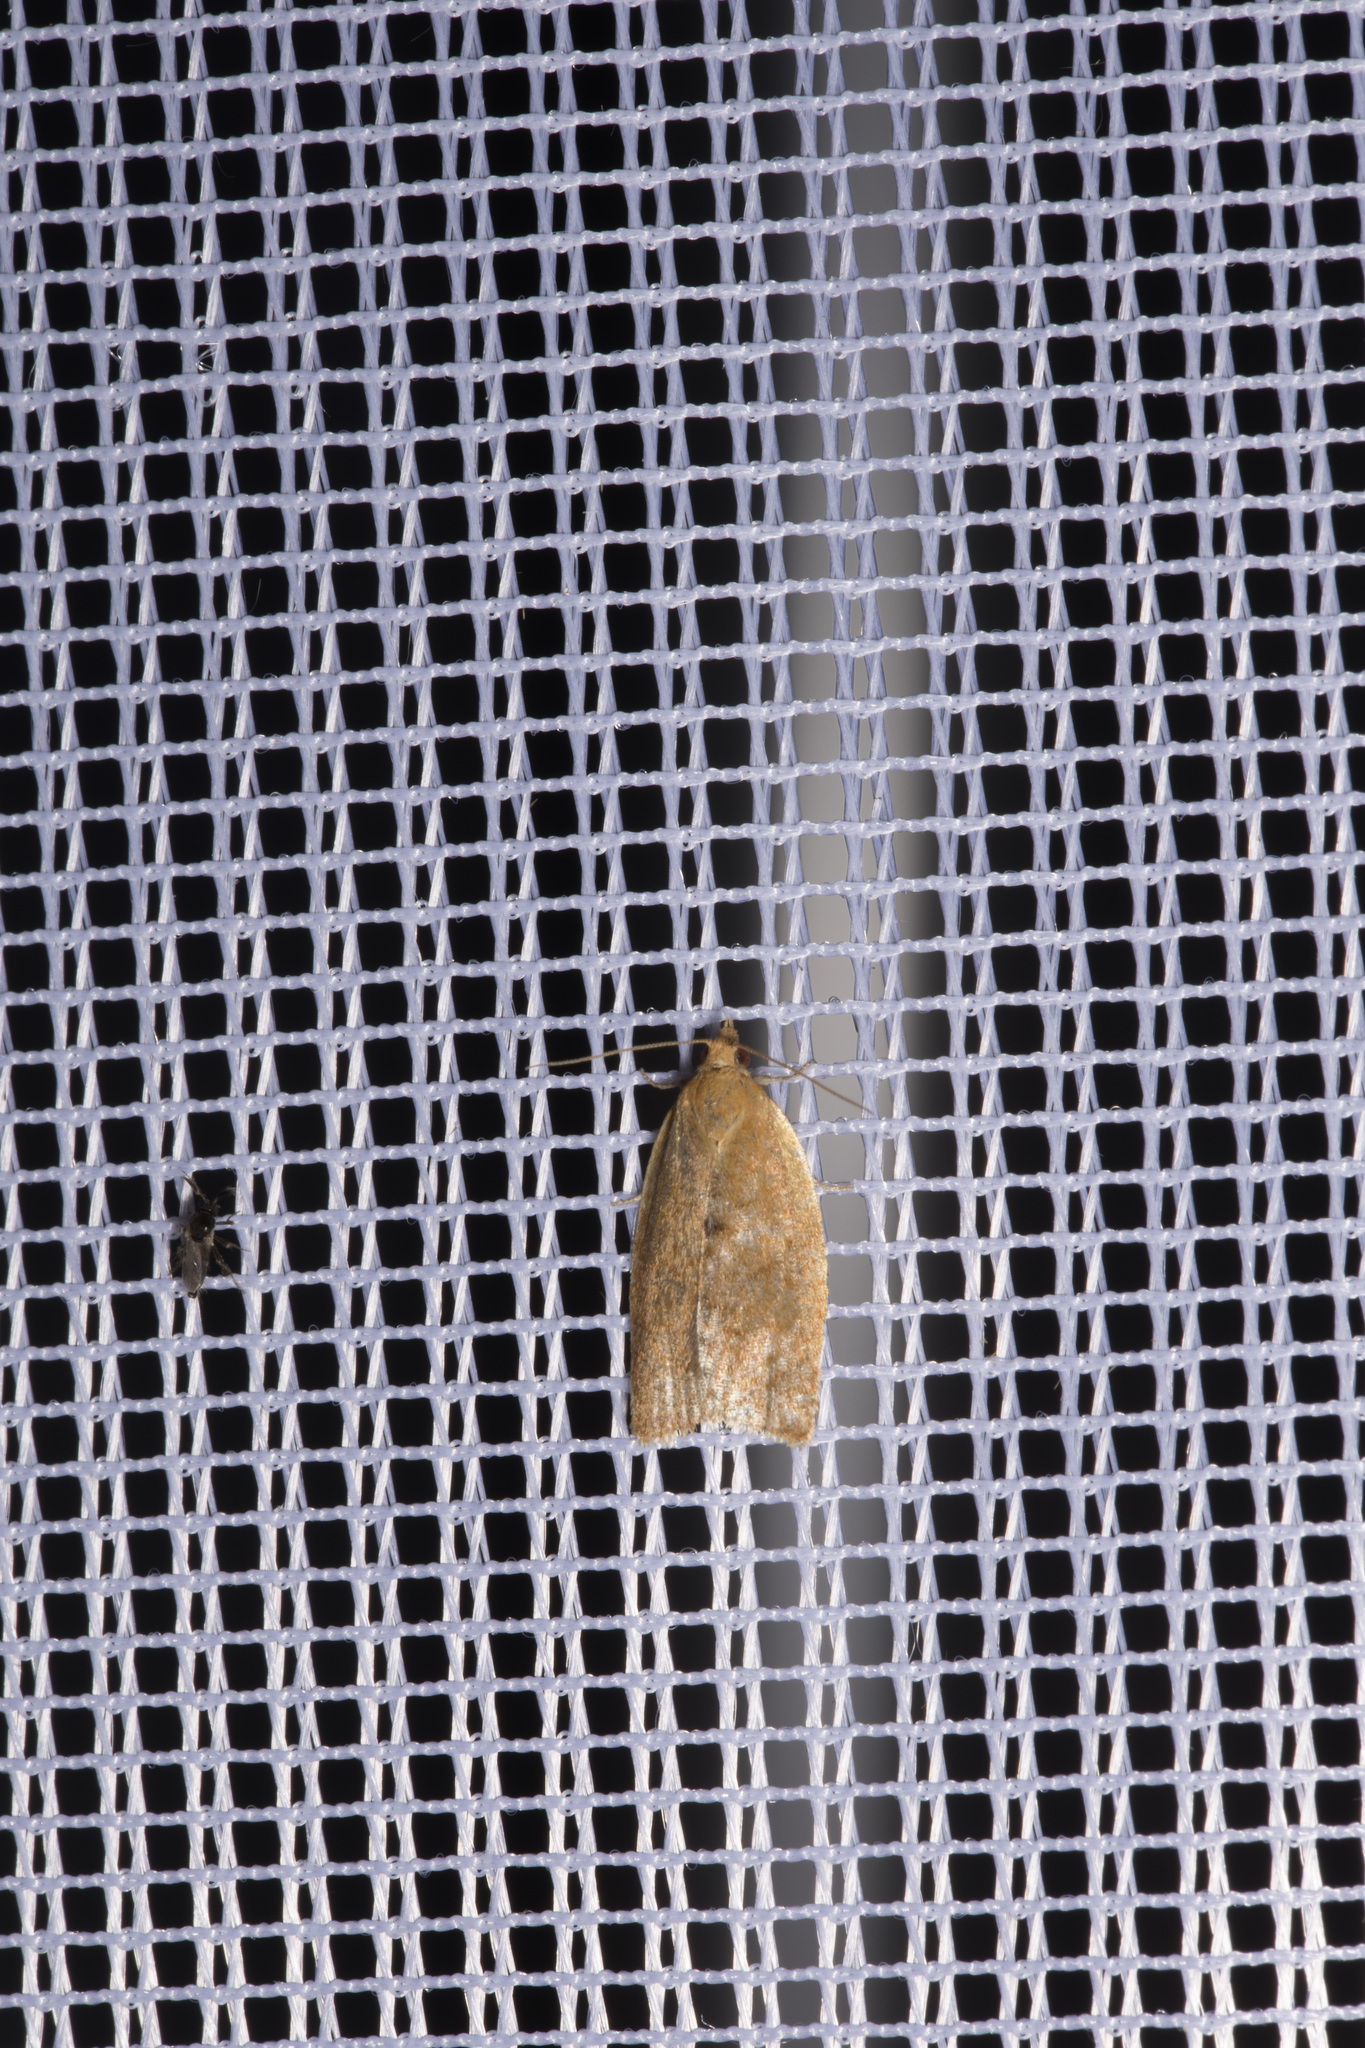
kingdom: Animalia
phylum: Arthropoda
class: Insecta
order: Lepidoptera
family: Tortricidae
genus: Clepsis
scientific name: Clepsis consimilana
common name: Privet tortrix
